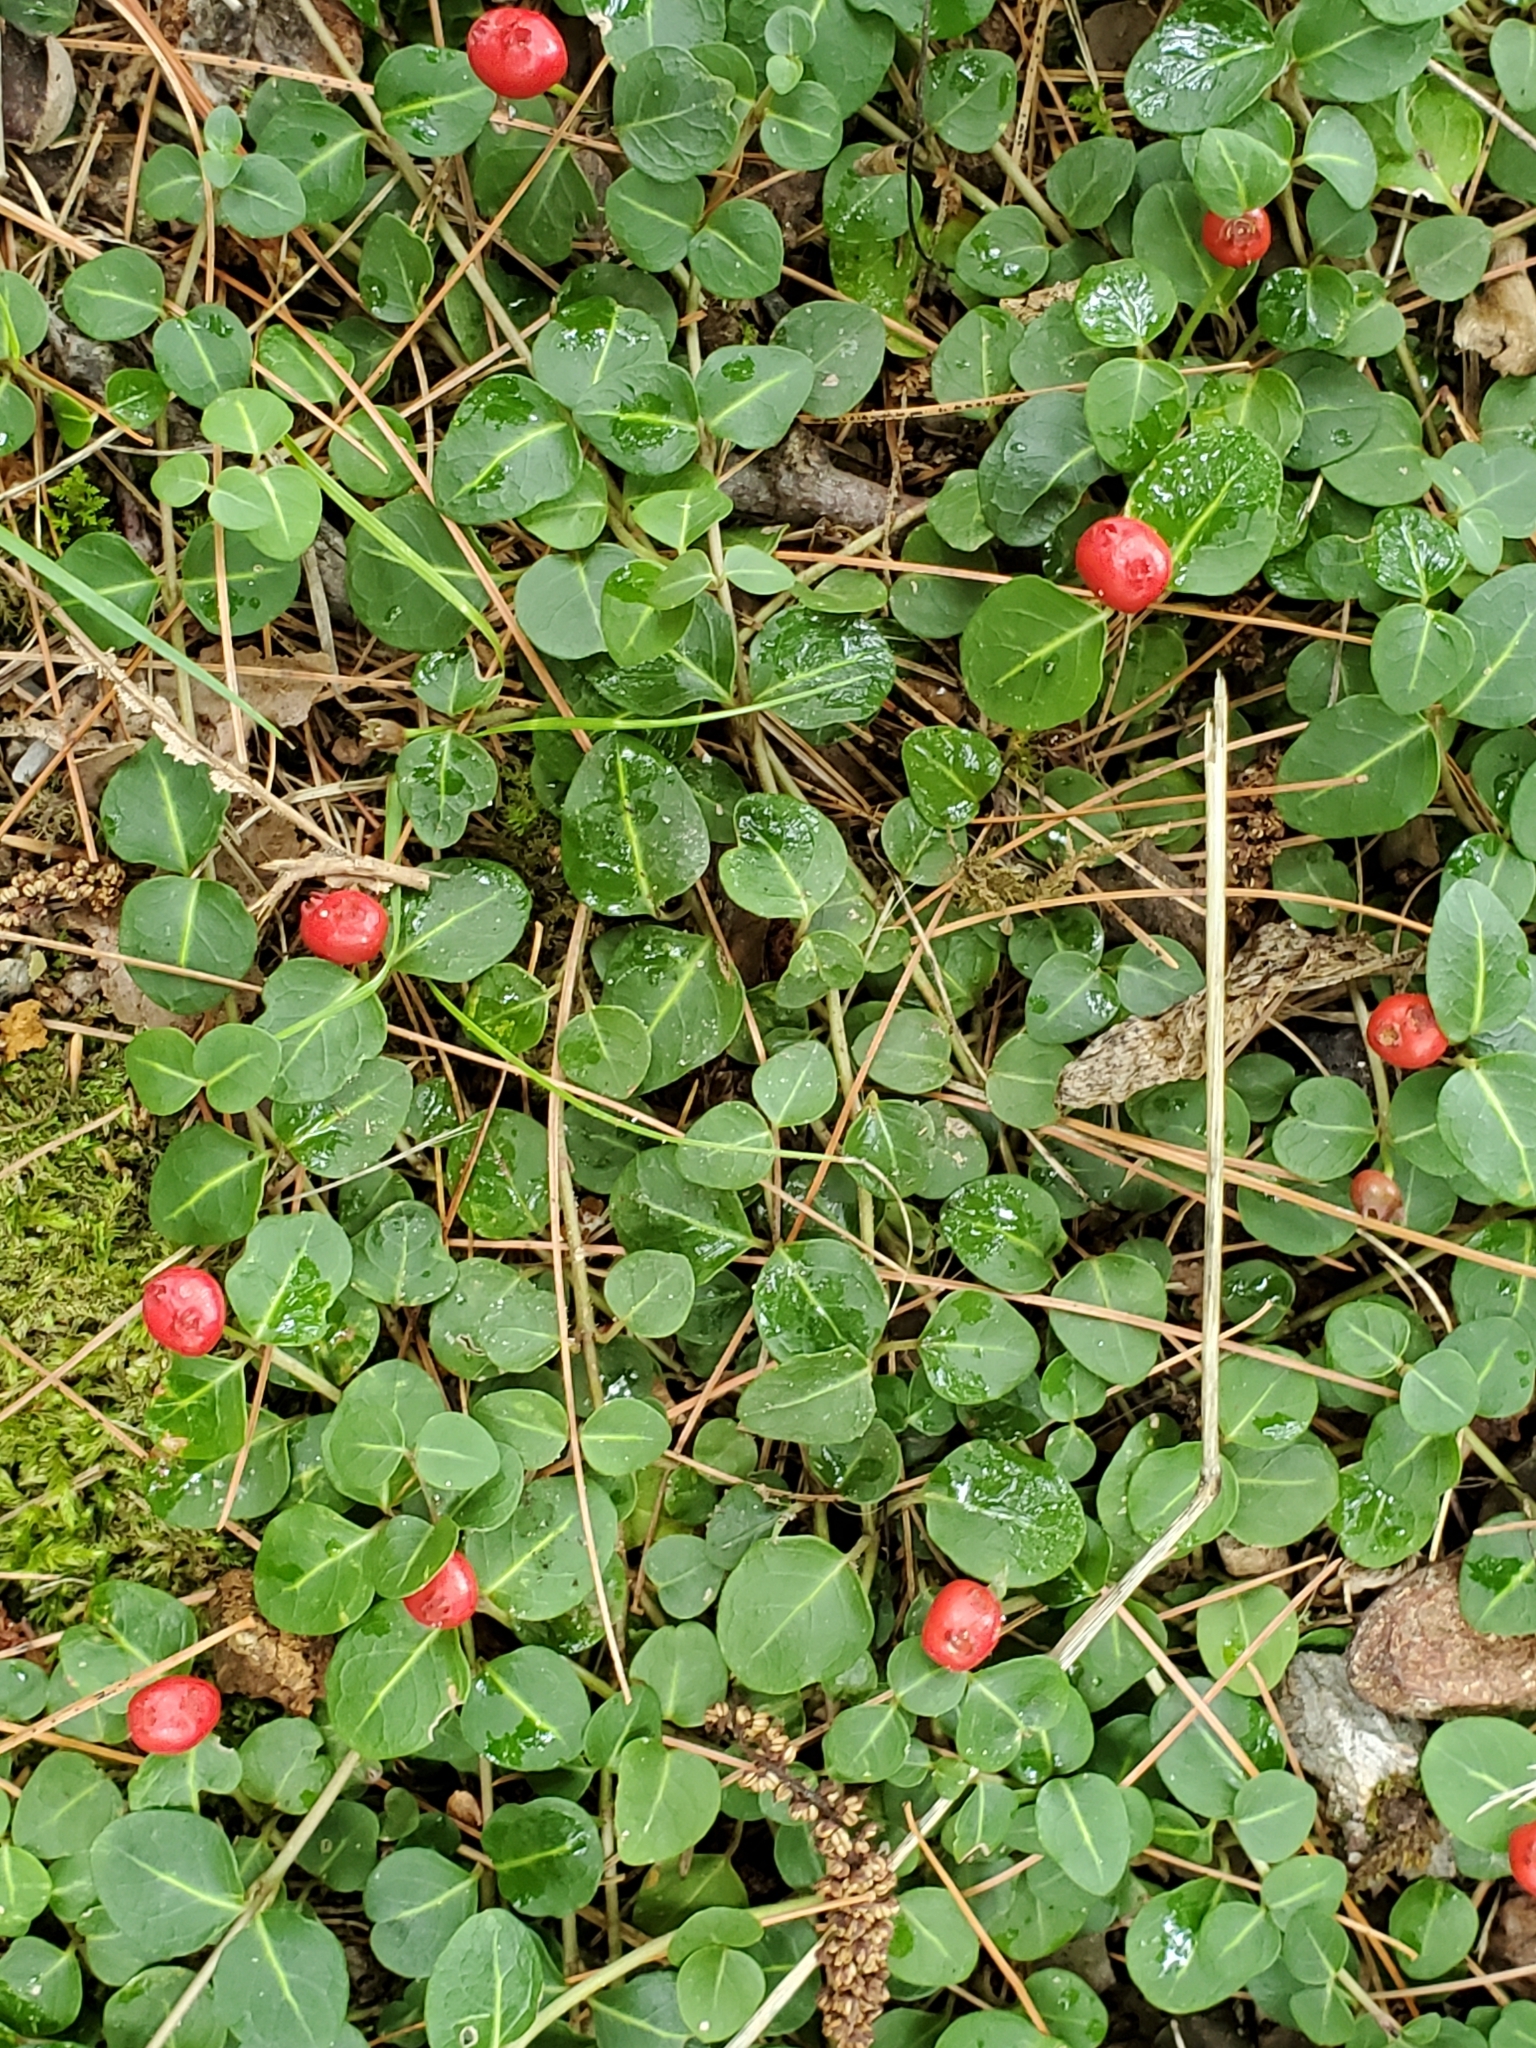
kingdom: Plantae
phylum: Tracheophyta
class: Magnoliopsida
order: Gentianales
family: Rubiaceae
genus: Mitchella
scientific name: Mitchella repens
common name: Partridge-berry
